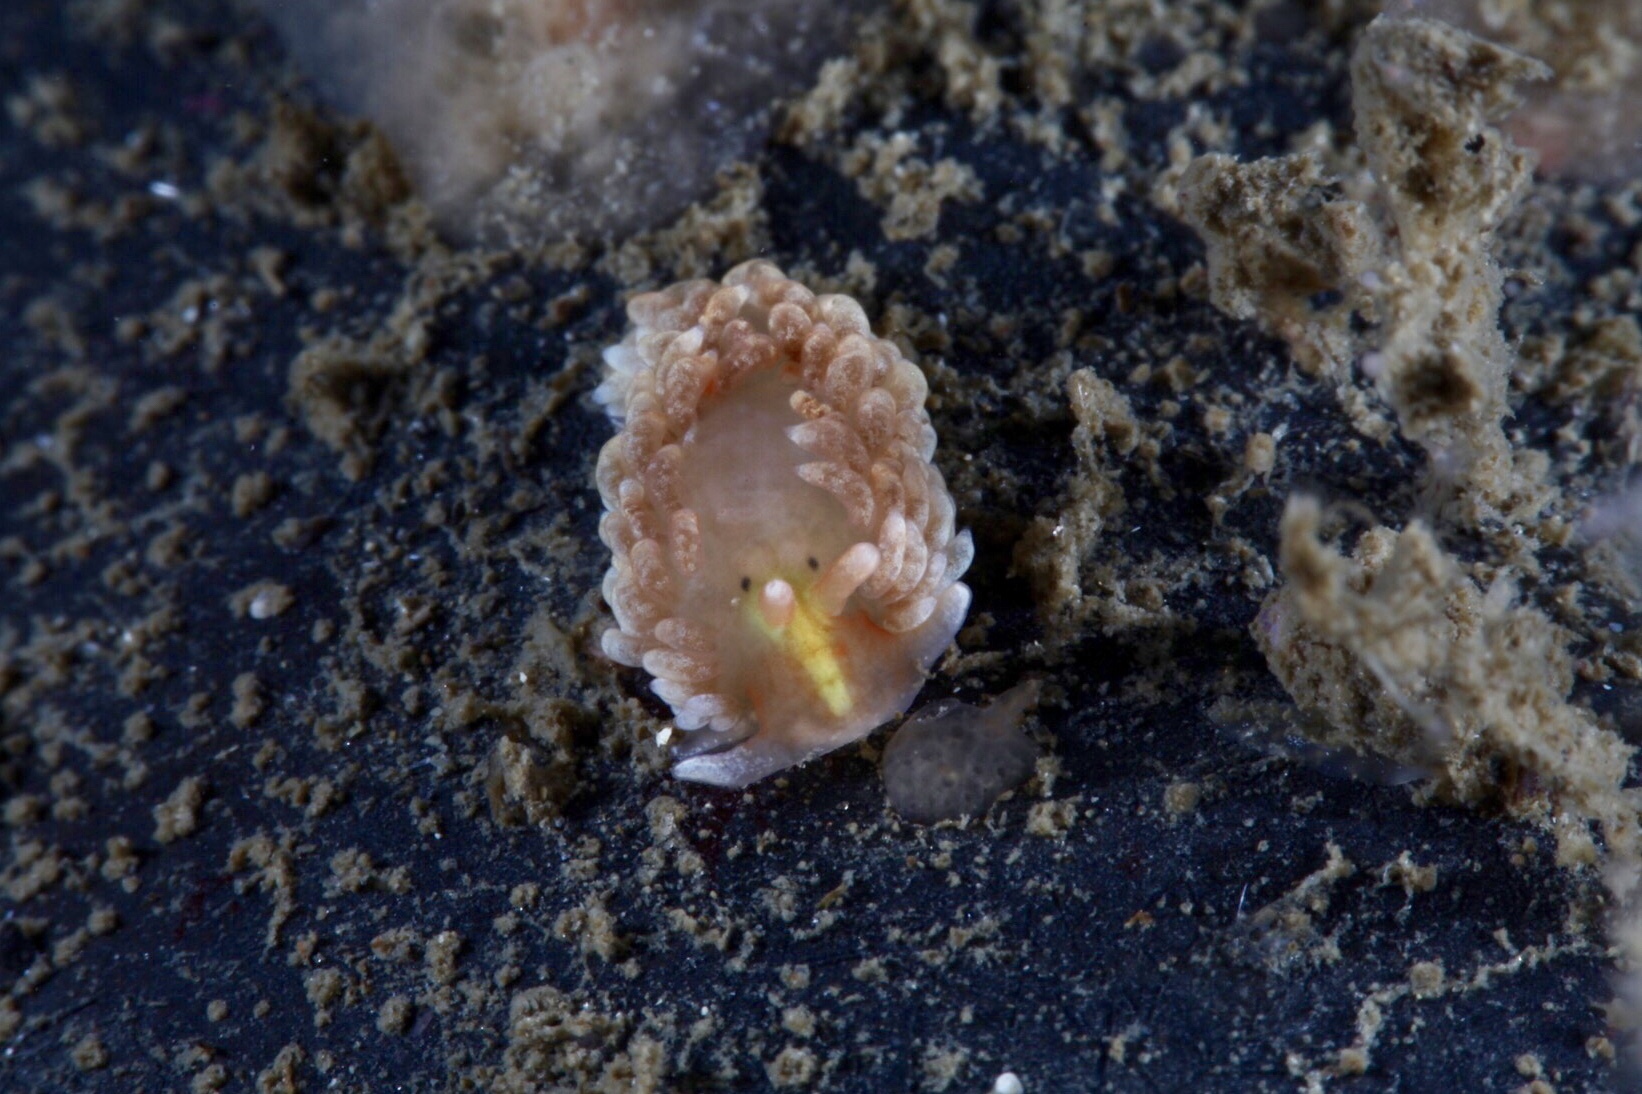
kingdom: Animalia
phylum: Mollusca
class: Gastropoda
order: Nudibranchia
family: Aeolidiidae
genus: Aeolidiella
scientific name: Aeolidiella glauca
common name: Orange-brown aeolid
